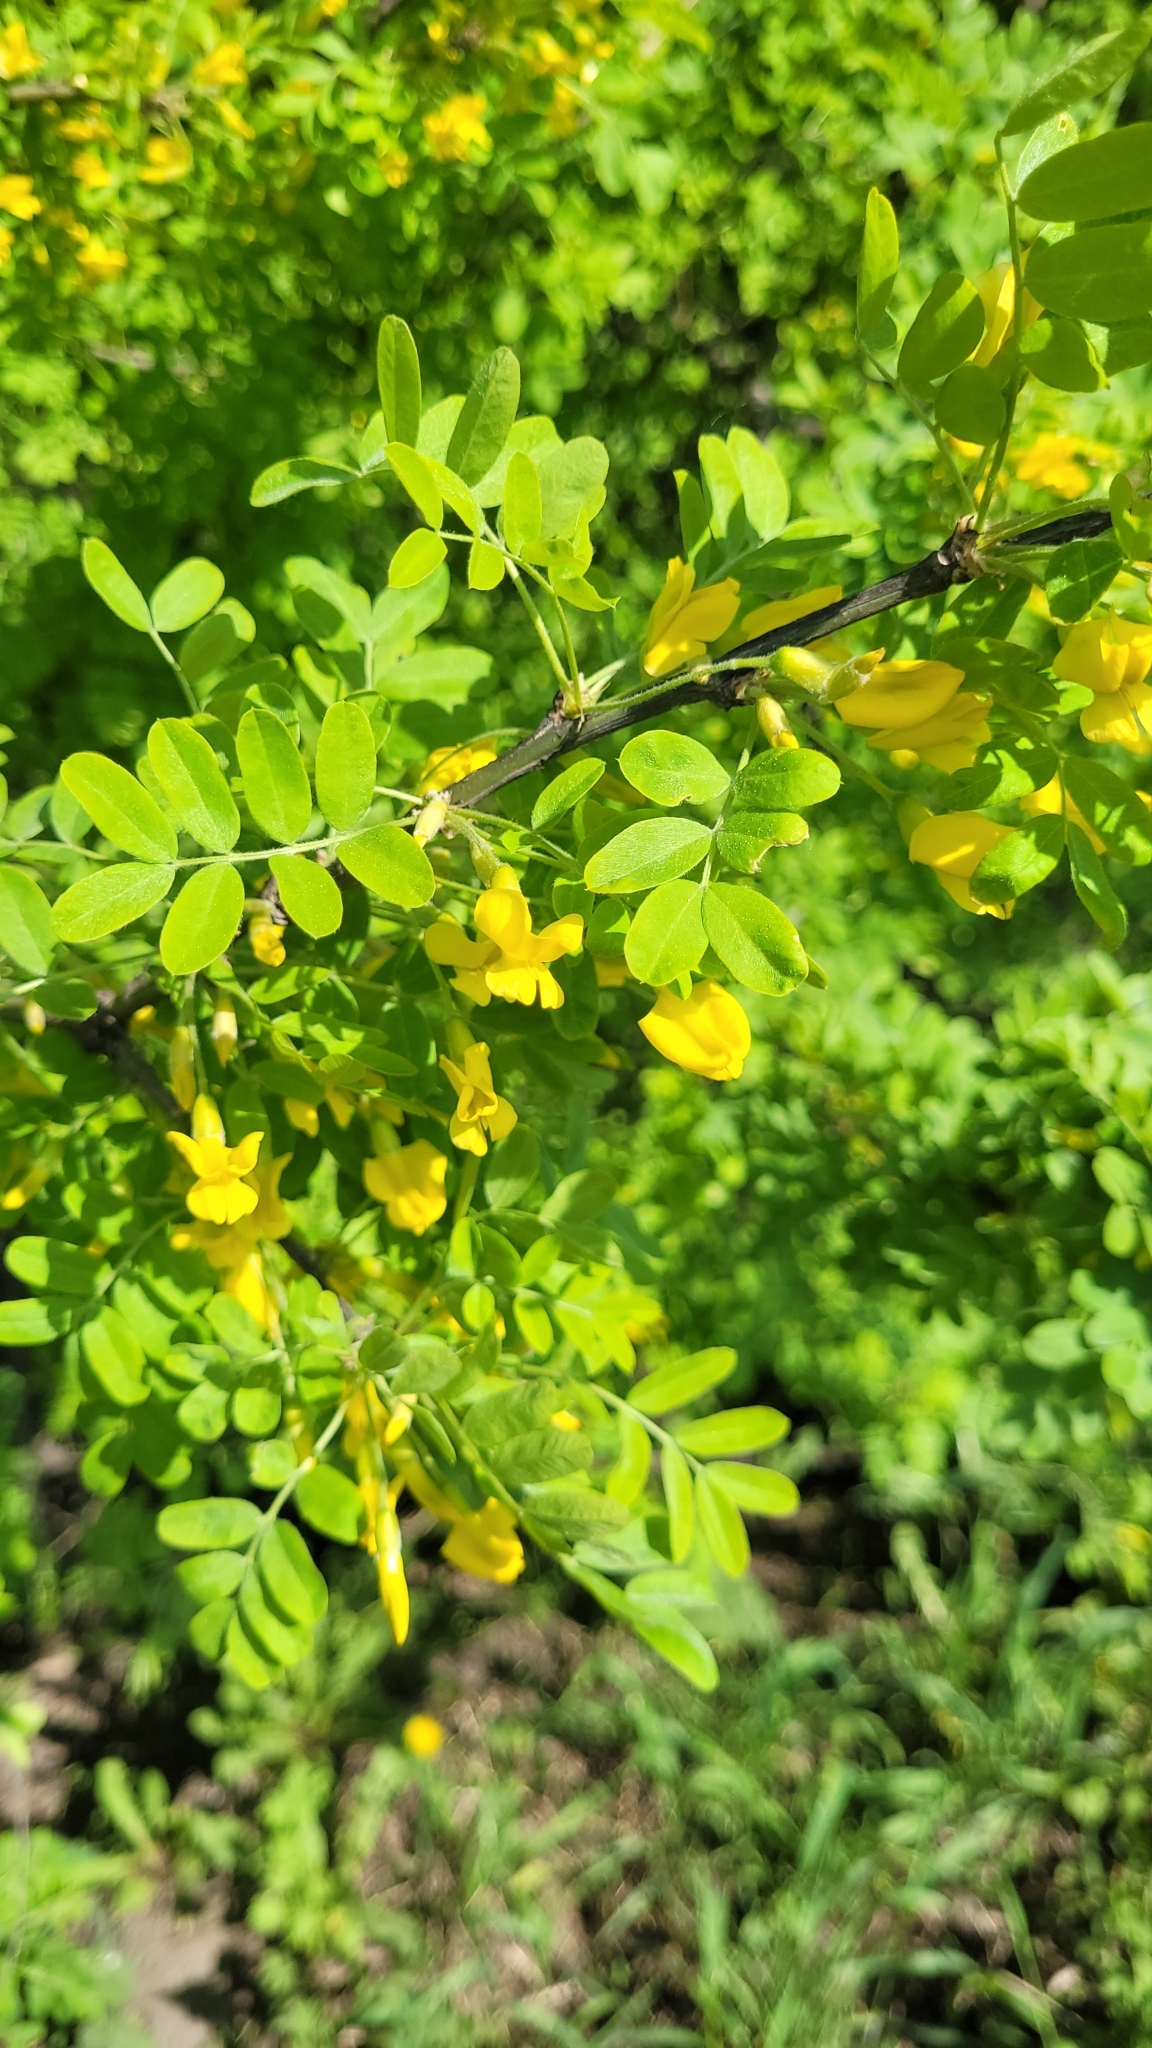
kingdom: Plantae
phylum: Tracheophyta
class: Magnoliopsida
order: Fabales
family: Fabaceae
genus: Caragana
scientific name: Caragana arborescens
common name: Siberian peashrub
